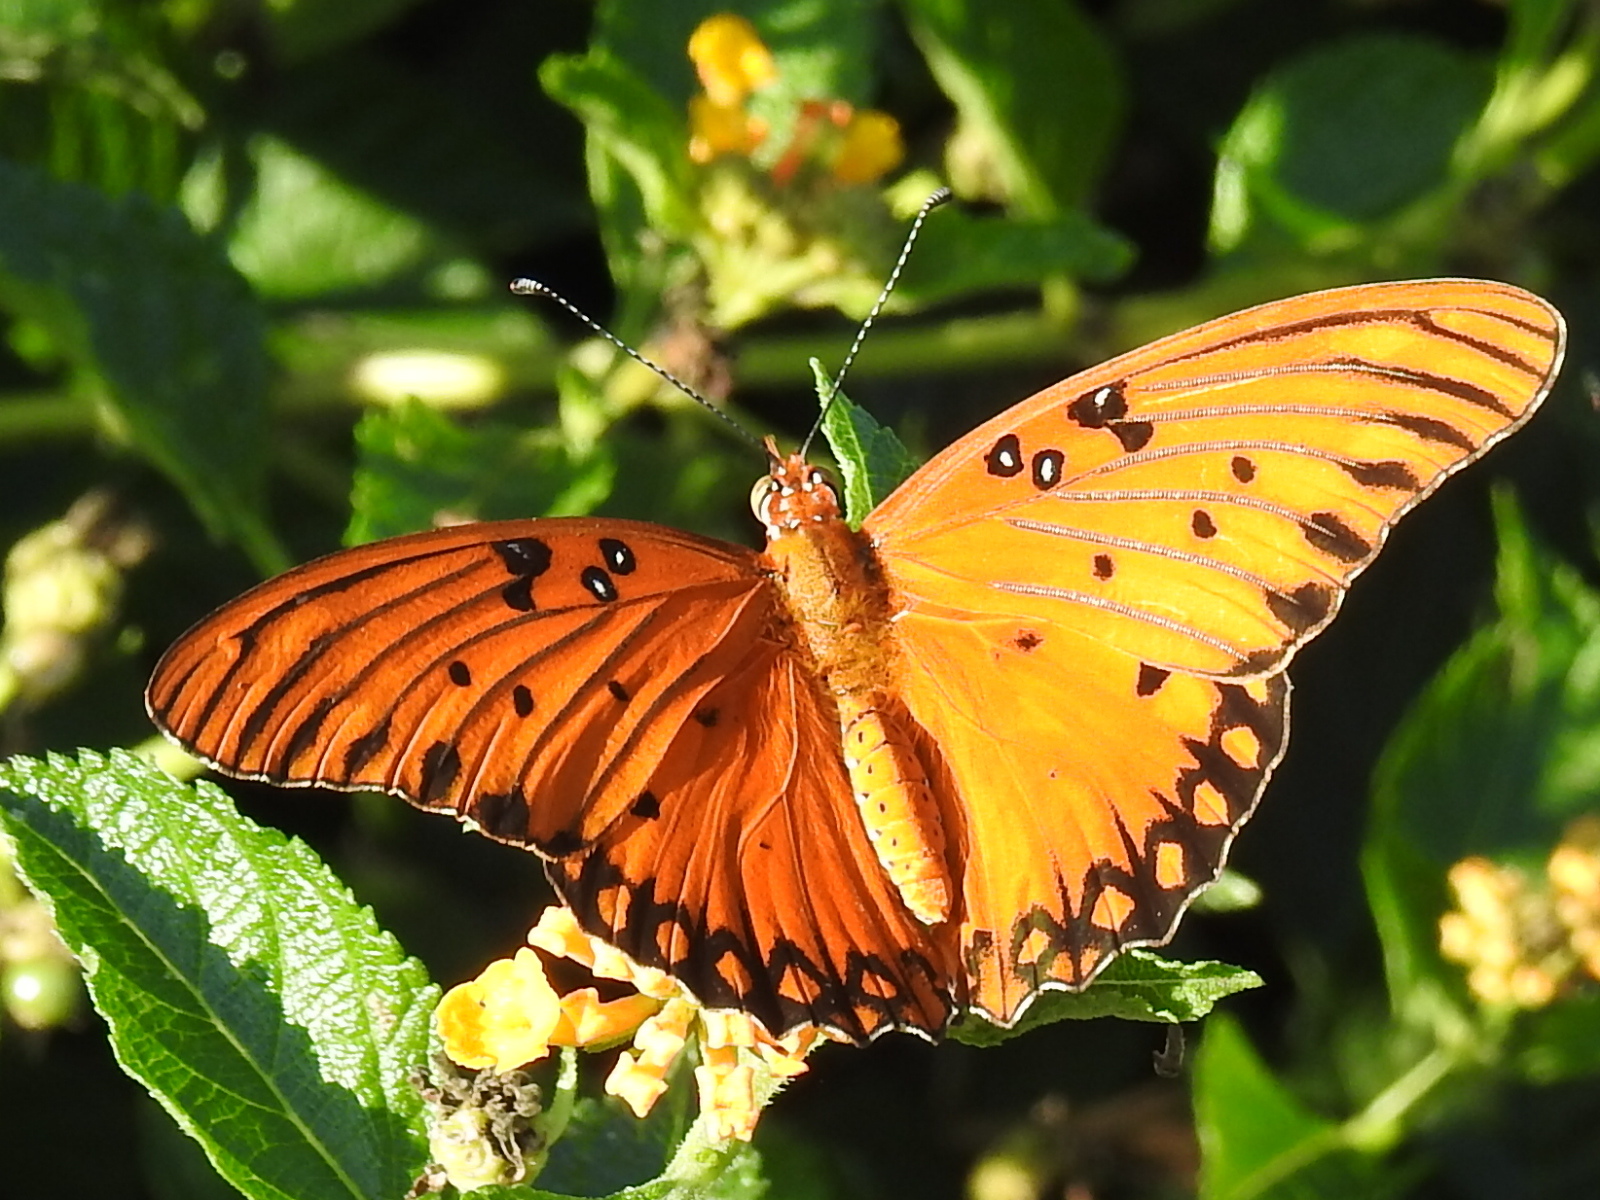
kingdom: Animalia
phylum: Arthropoda
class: Insecta
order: Lepidoptera
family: Nymphalidae
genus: Dione
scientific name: Dione vanillae
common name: Gulf fritillary
